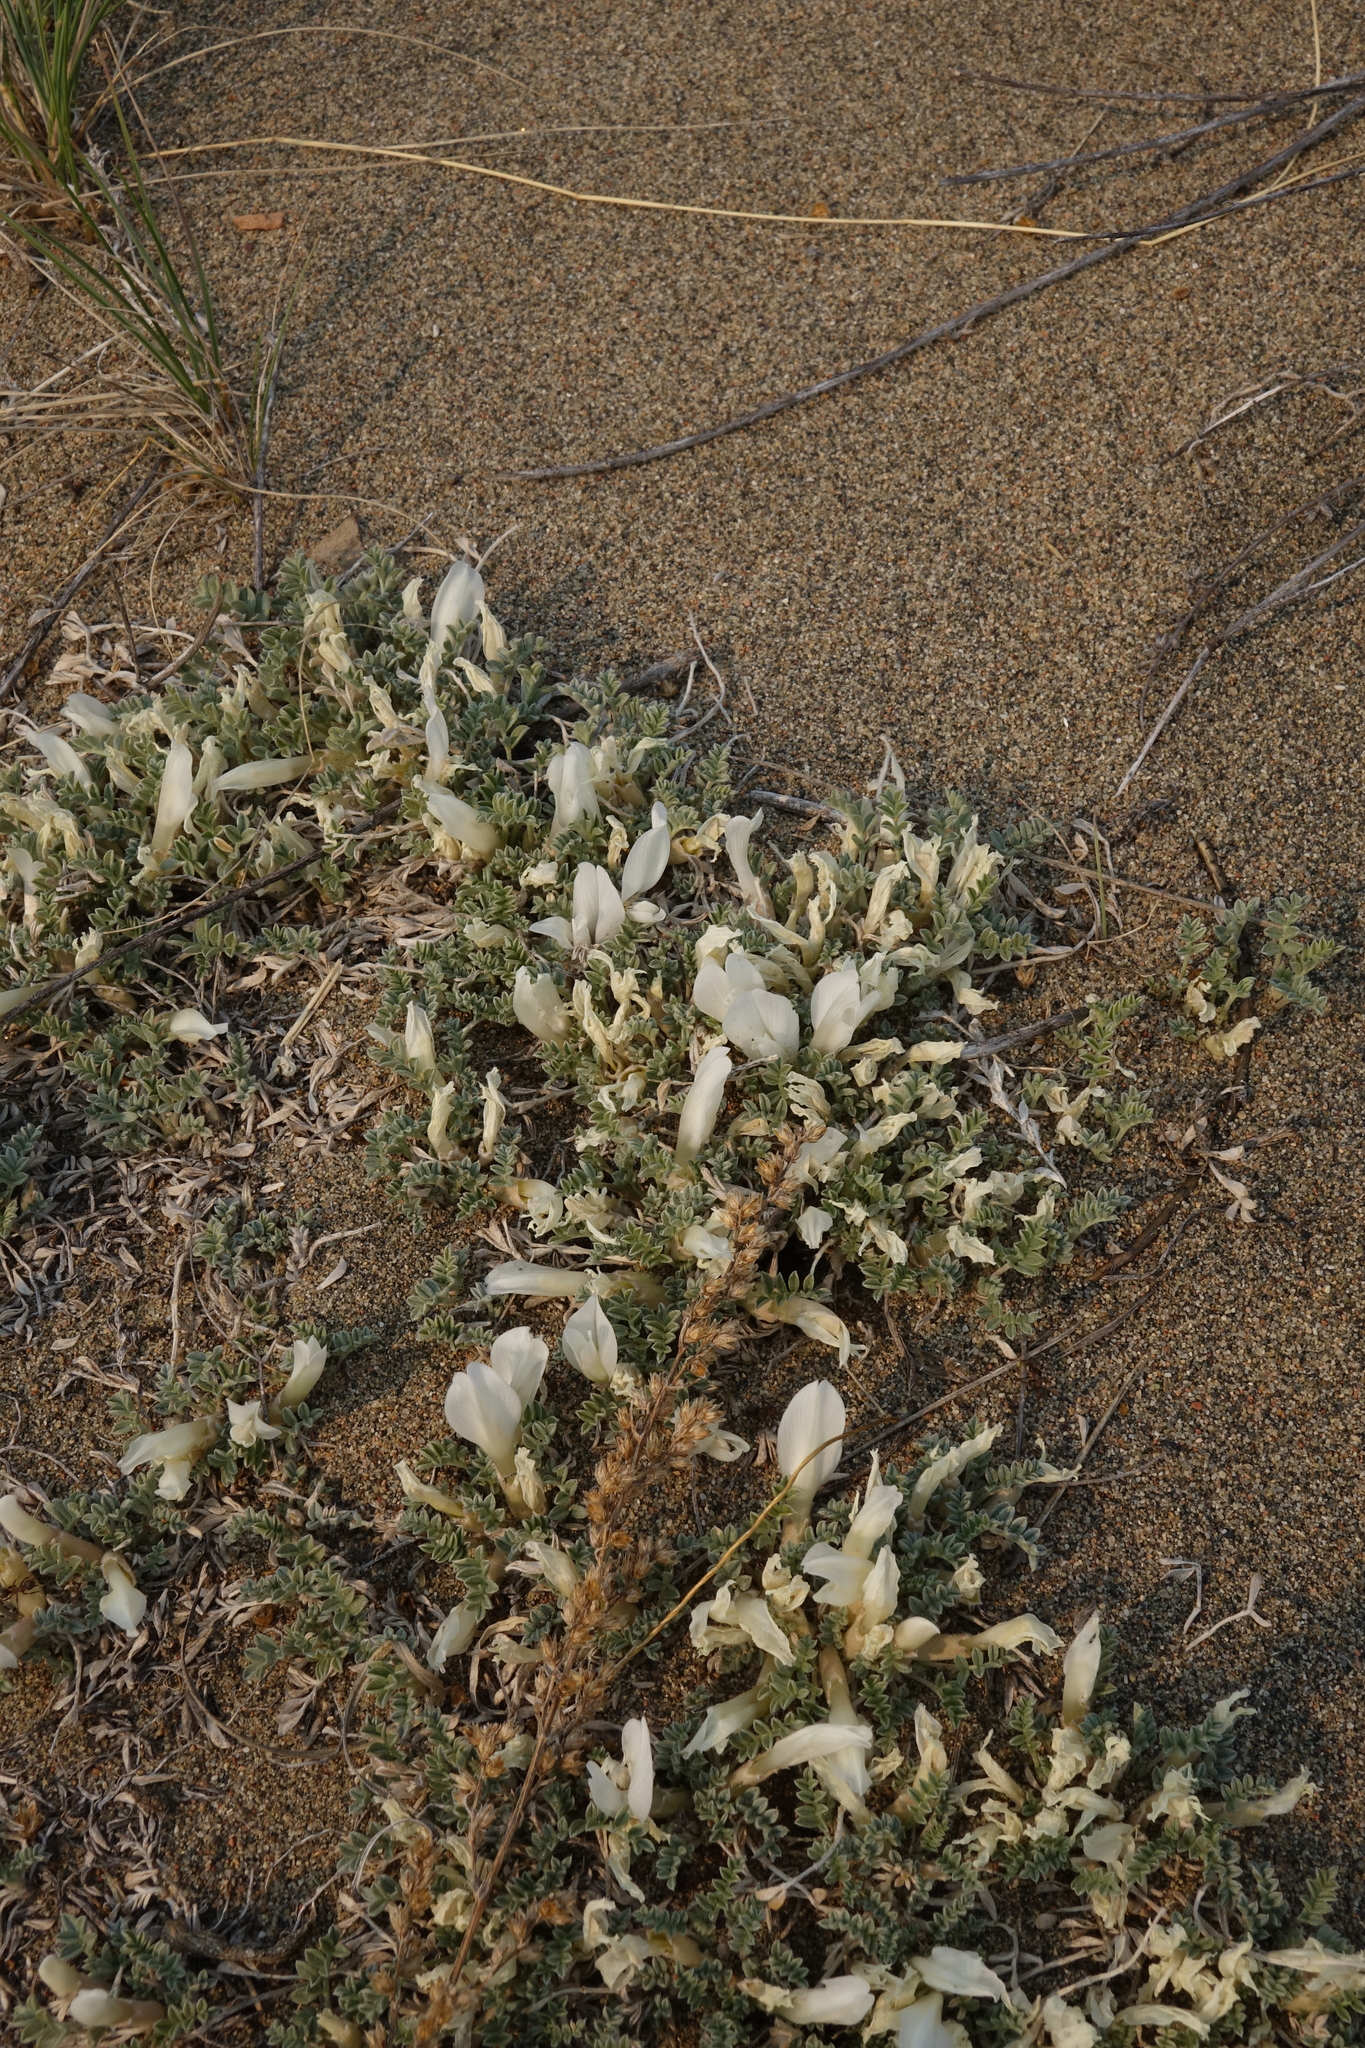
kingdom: Plantae
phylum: Tracheophyta
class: Magnoliopsida
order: Fabales
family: Fabaceae
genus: Astragalus
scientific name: Astragalus teskhemicus
